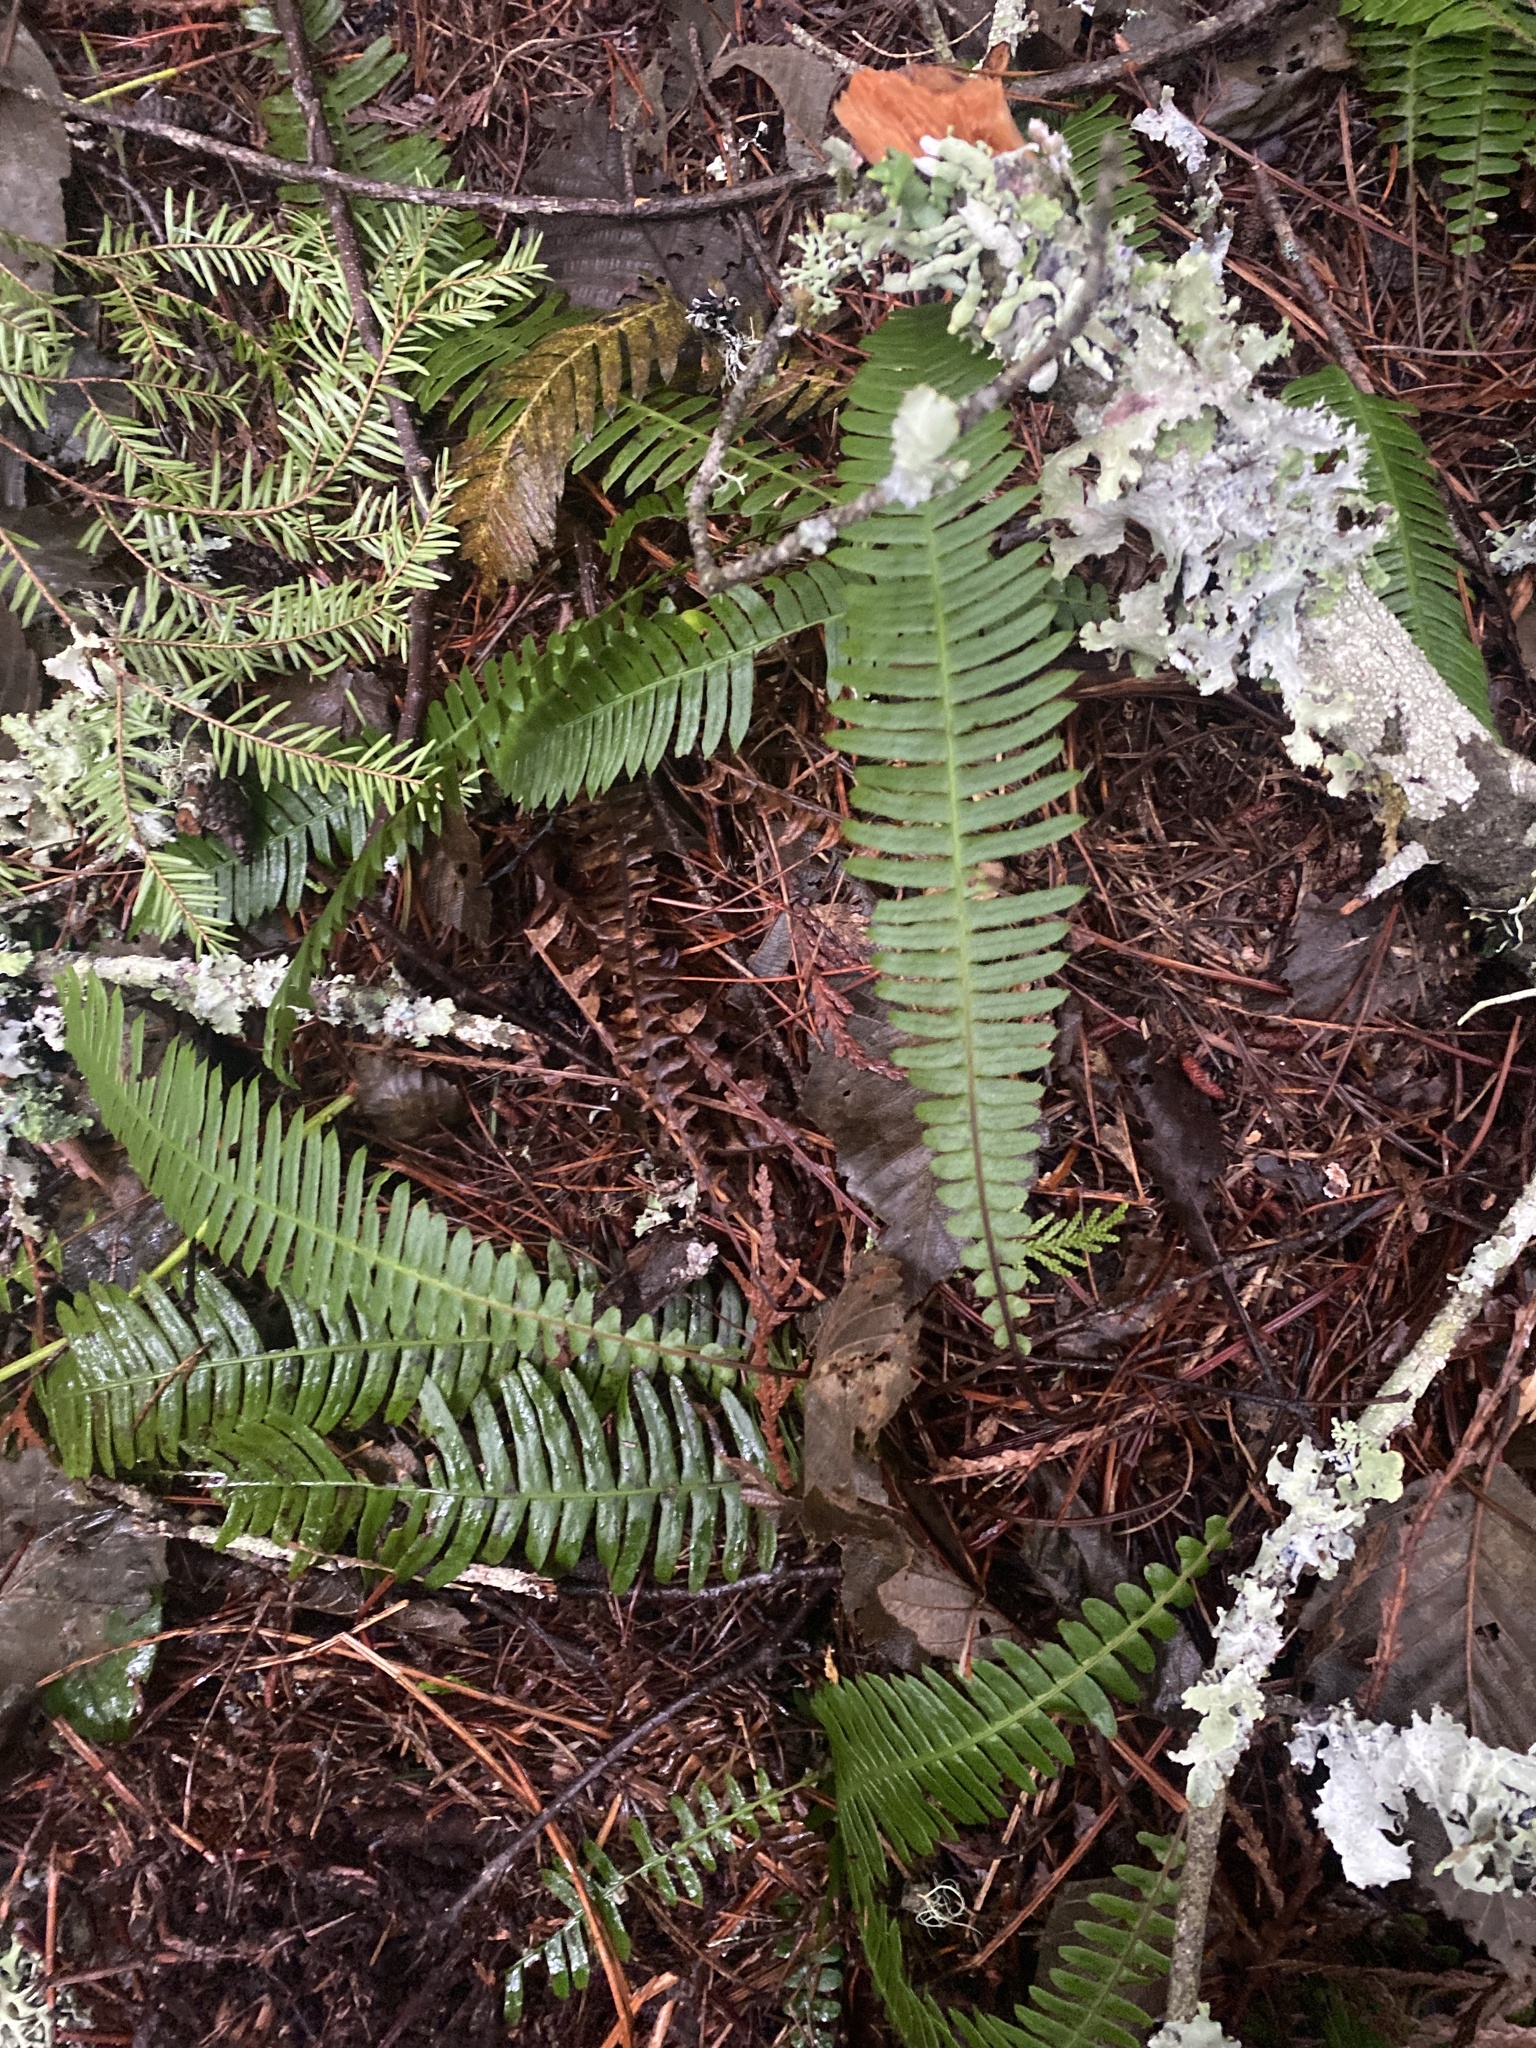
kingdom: Plantae
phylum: Tracheophyta
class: Polypodiopsida
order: Polypodiales
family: Blechnaceae
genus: Struthiopteris
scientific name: Struthiopteris spicant
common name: Deer fern
